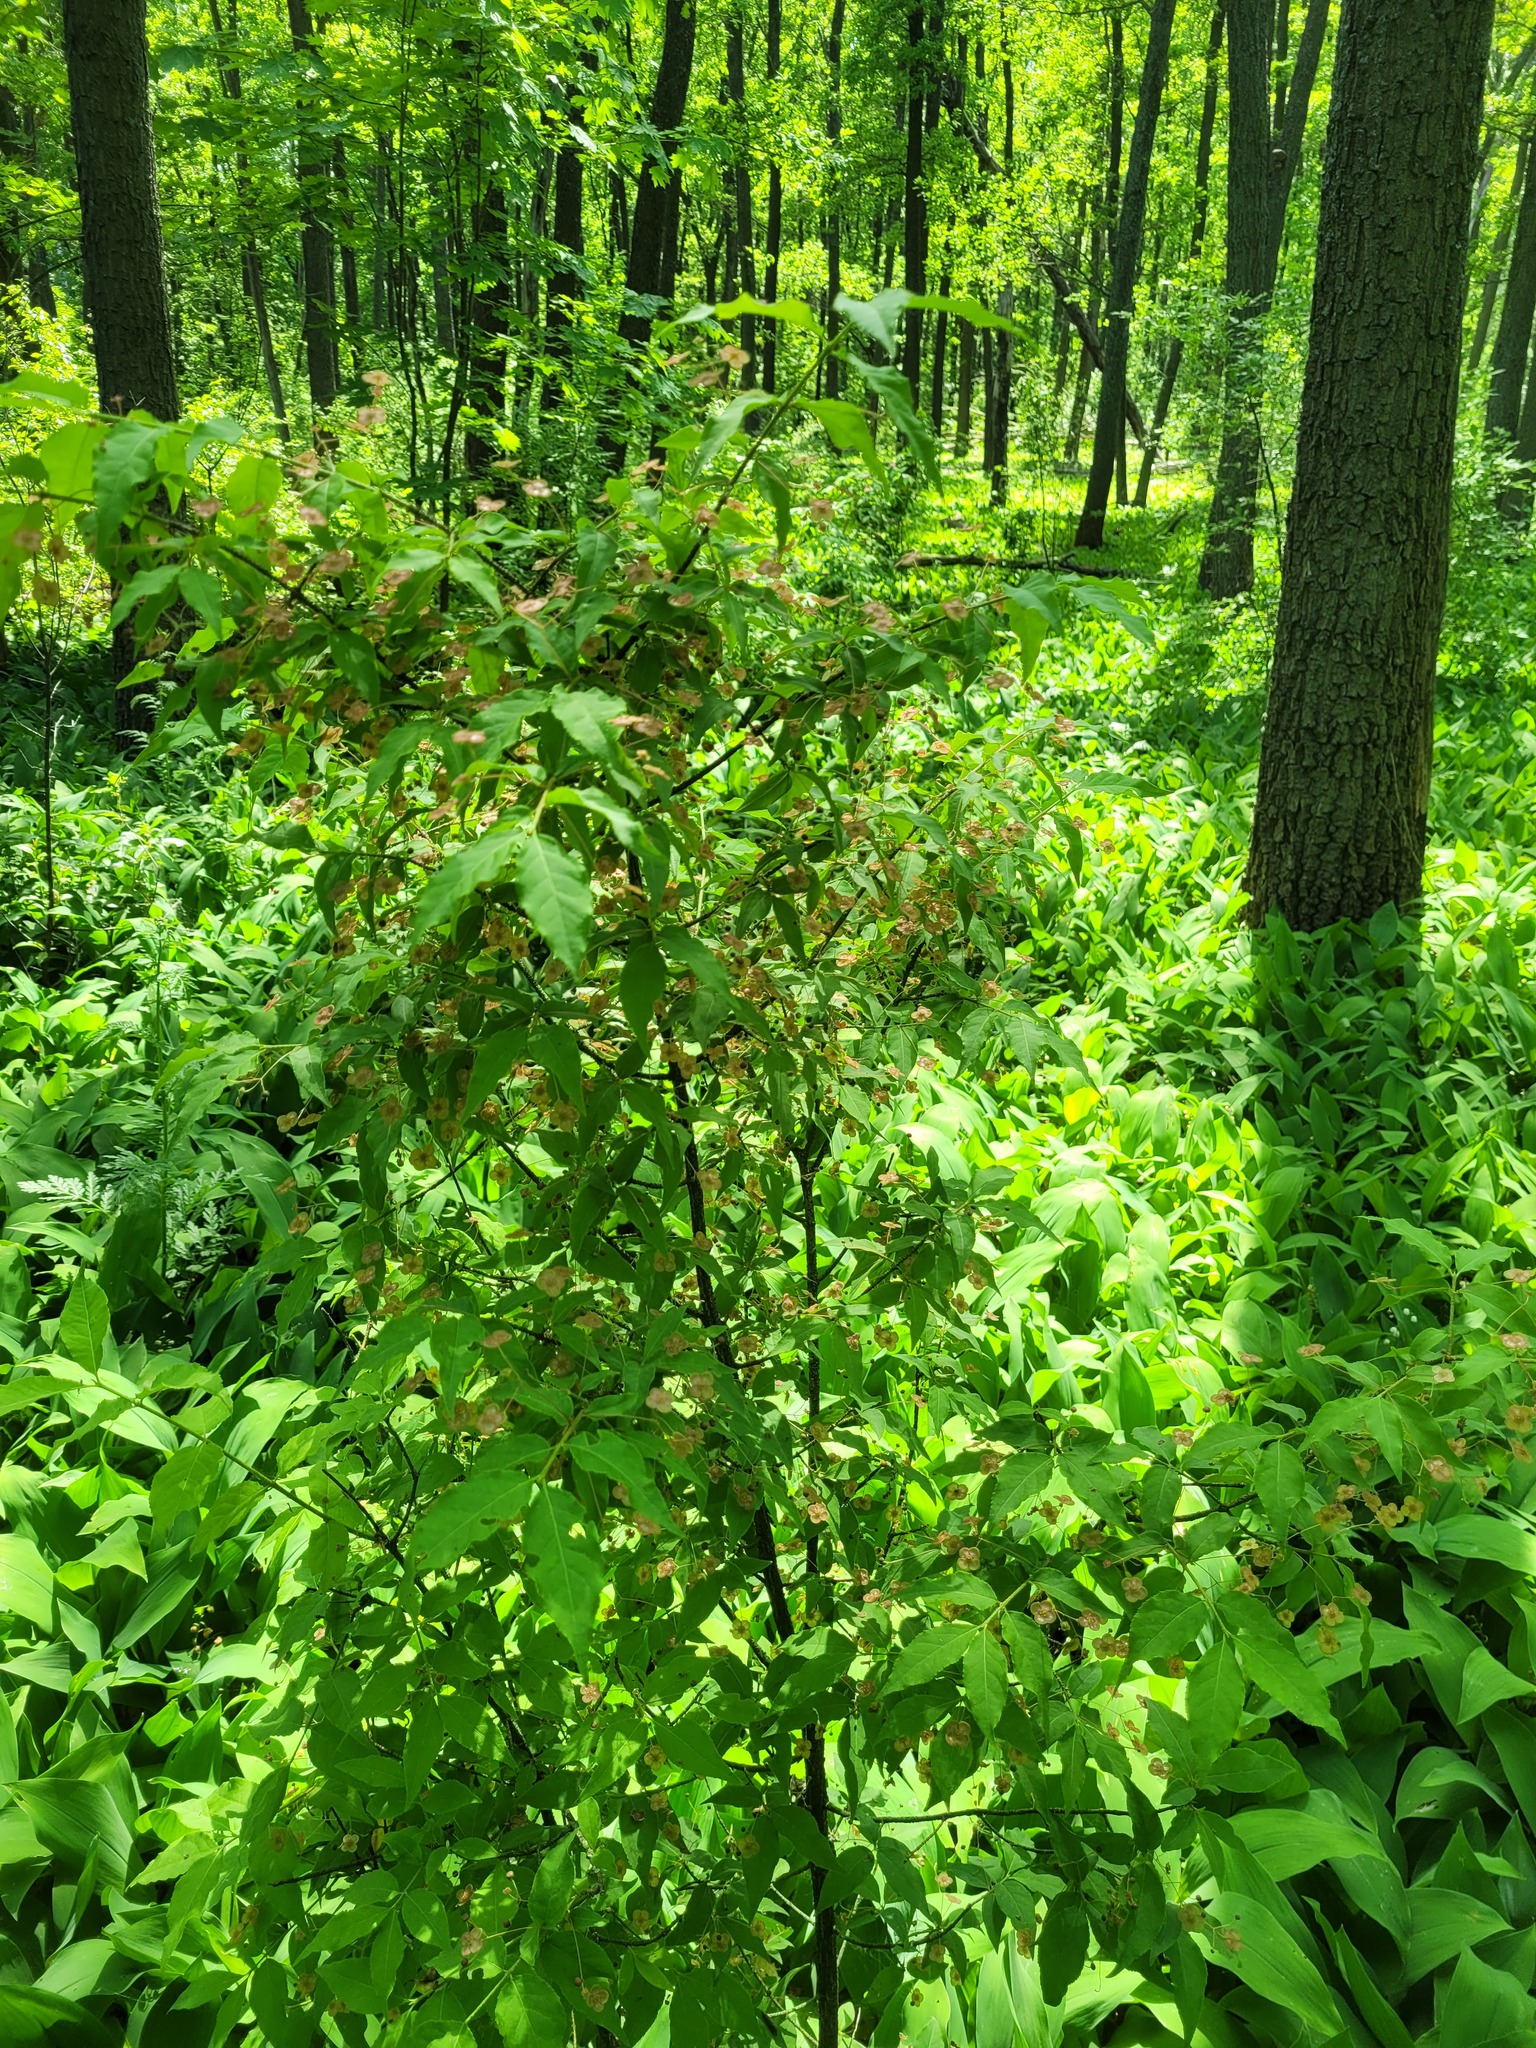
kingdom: Plantae
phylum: Tracheophyta
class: Magnoliopsida
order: Celastrales
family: Celastraceae
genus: Euonymus
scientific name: Euonymus verrucosus
